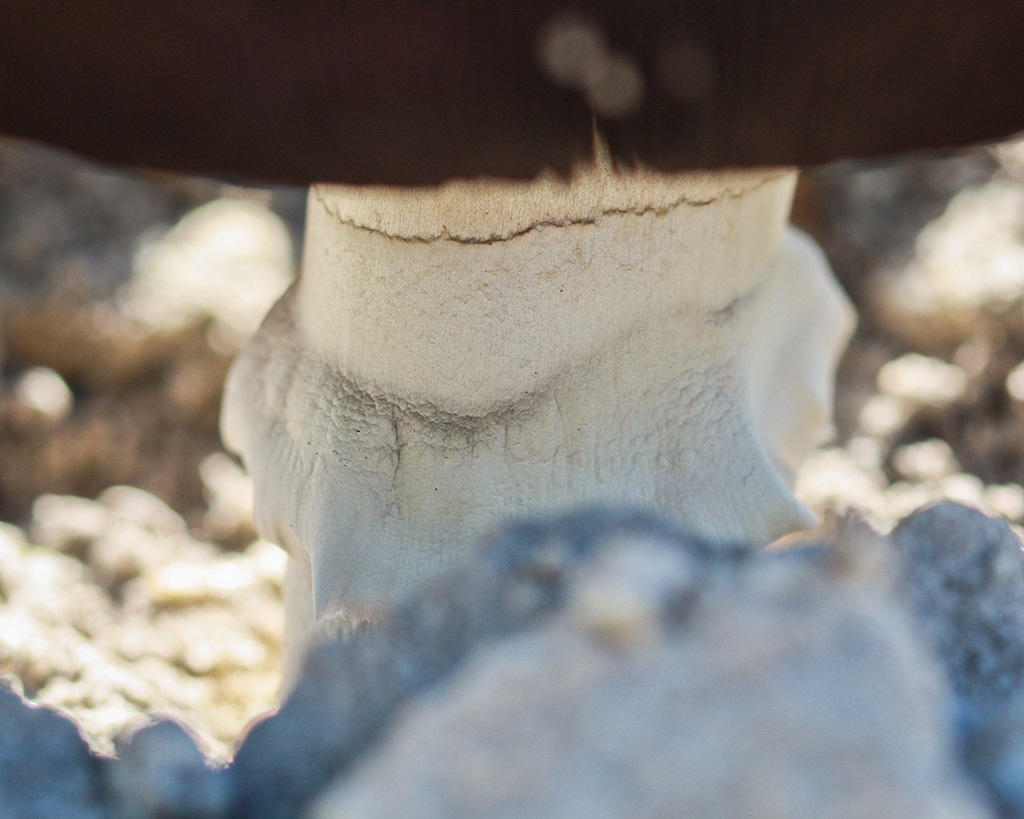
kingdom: Fungi
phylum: Basidiomycota
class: Agaricomycetes
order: Agaricales
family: Agaricaceae
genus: Agaricus
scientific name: Agaricus campestris
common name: Field mushroom
